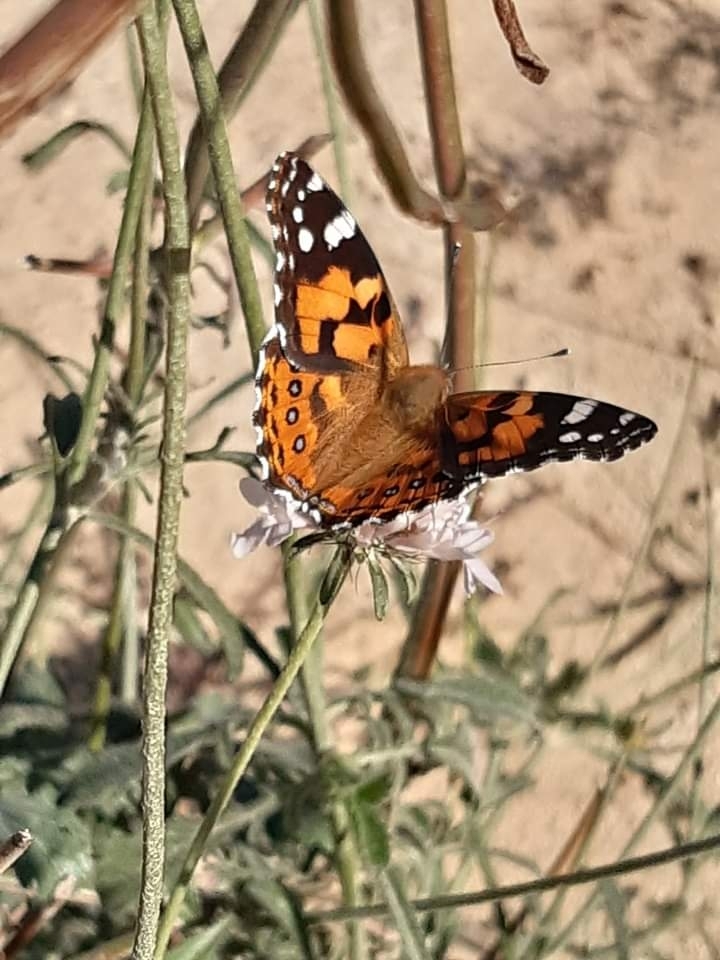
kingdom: Animalia
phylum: Arthropoda
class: Insecta
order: Lepidoptera
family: Nymphalidae
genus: Vanessa
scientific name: Vanessa kershawi
